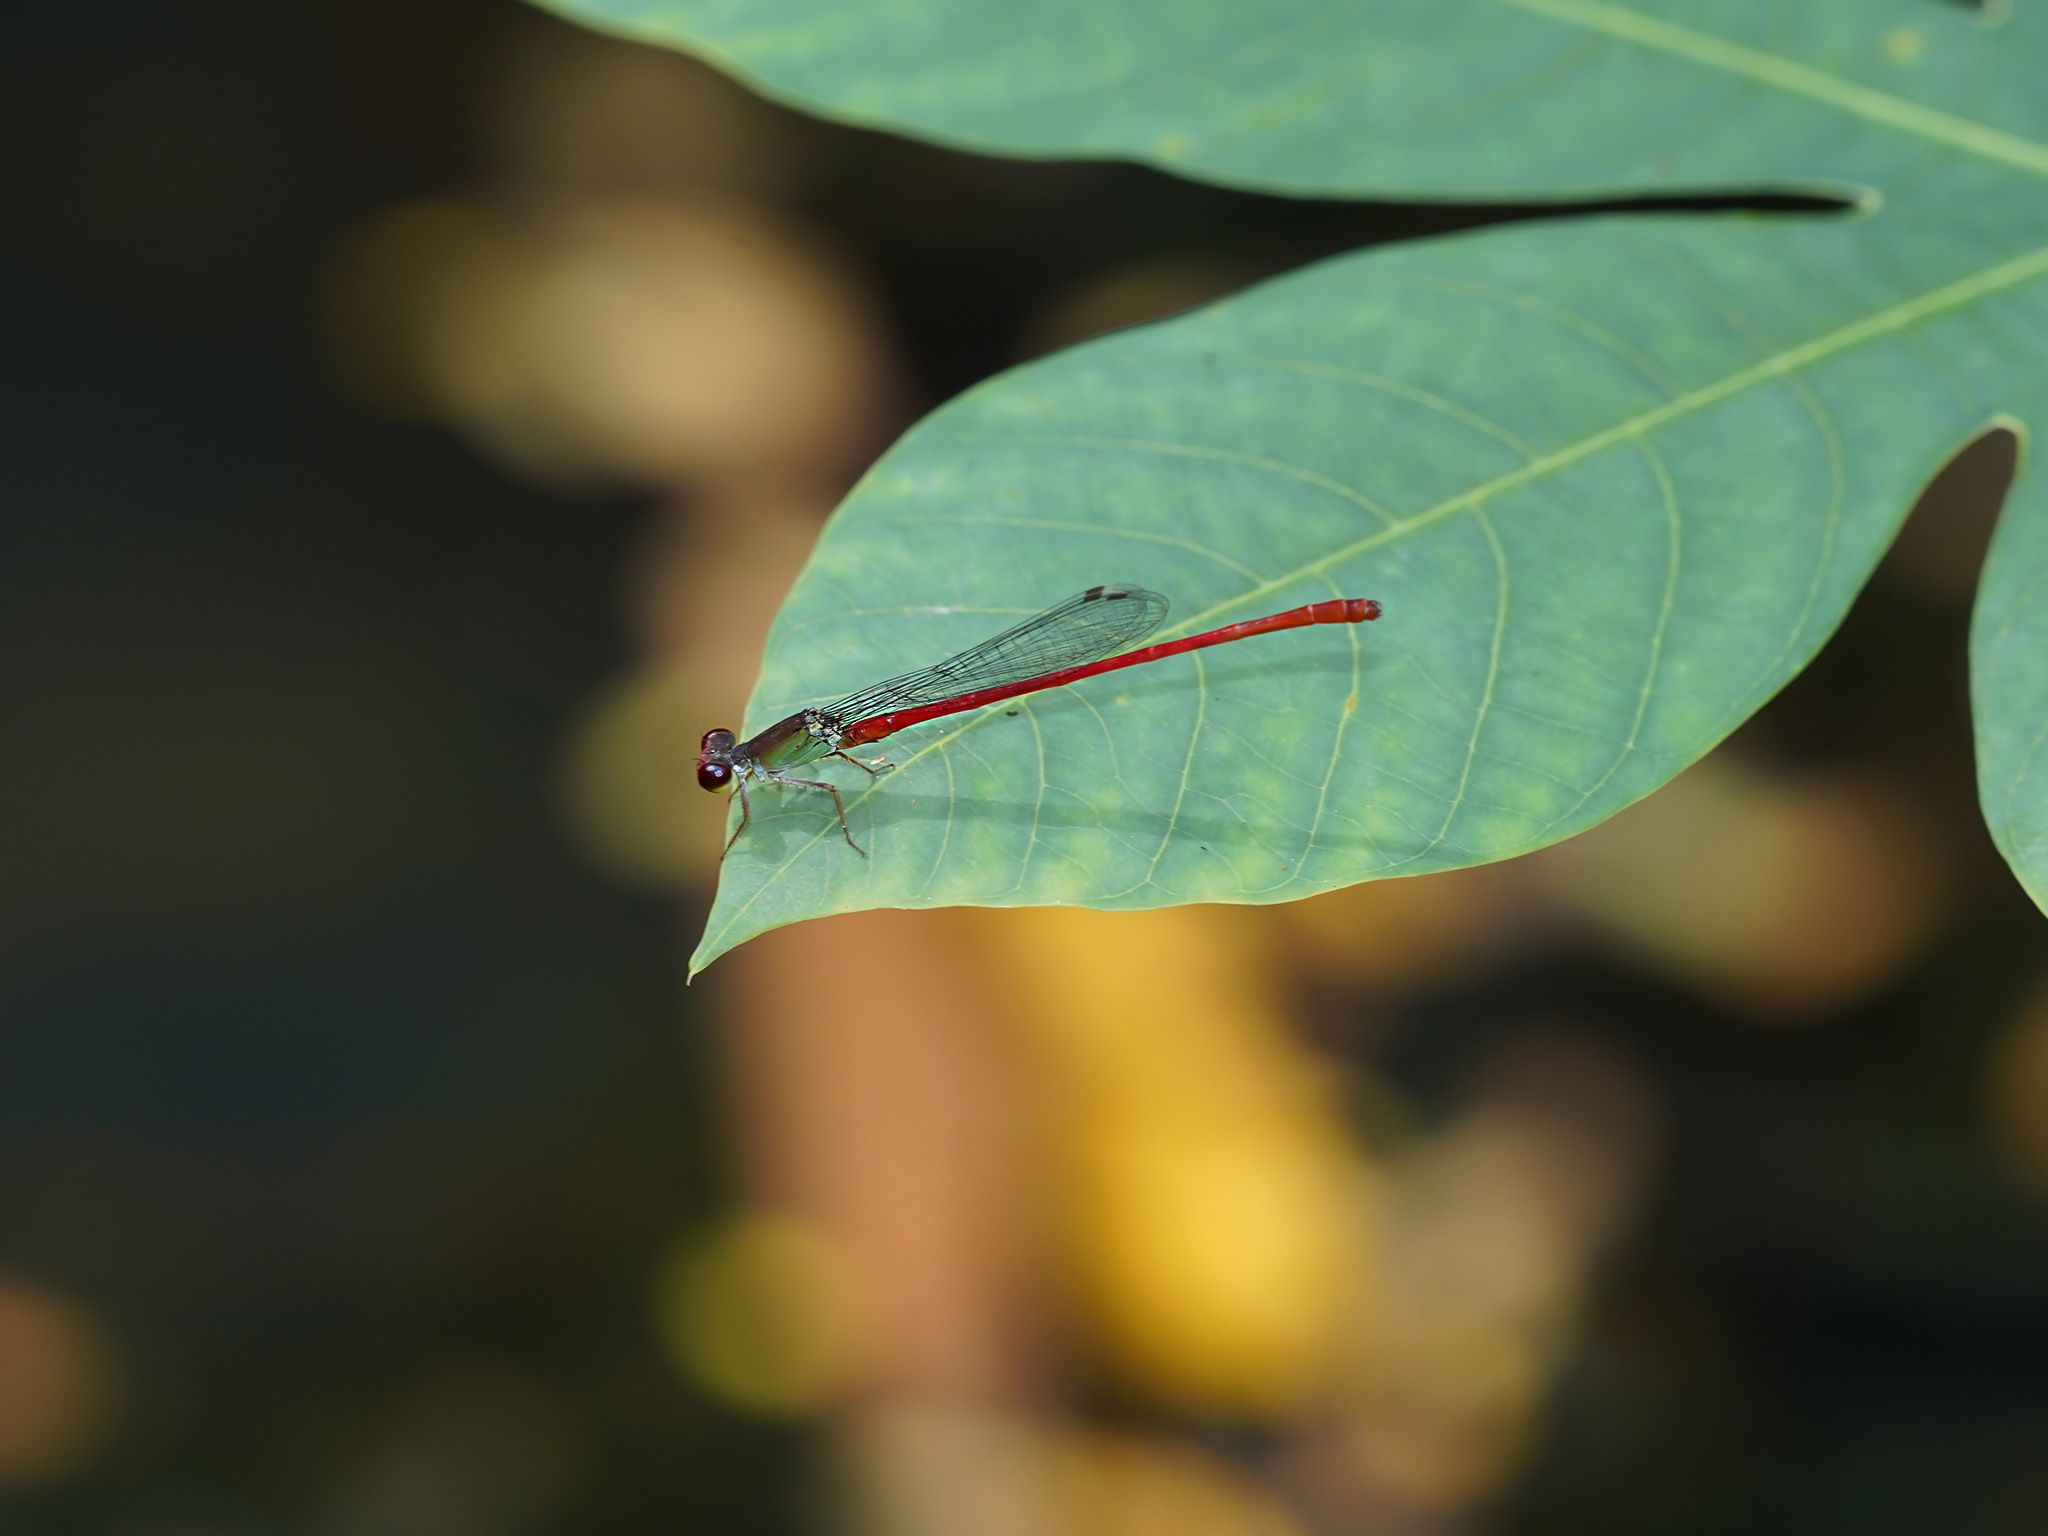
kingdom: Animalia
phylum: Arthropoda
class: Insecta
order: Odonata
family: Coenagrionidae
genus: Ceriagrion
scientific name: Ceriagrion chaoi
